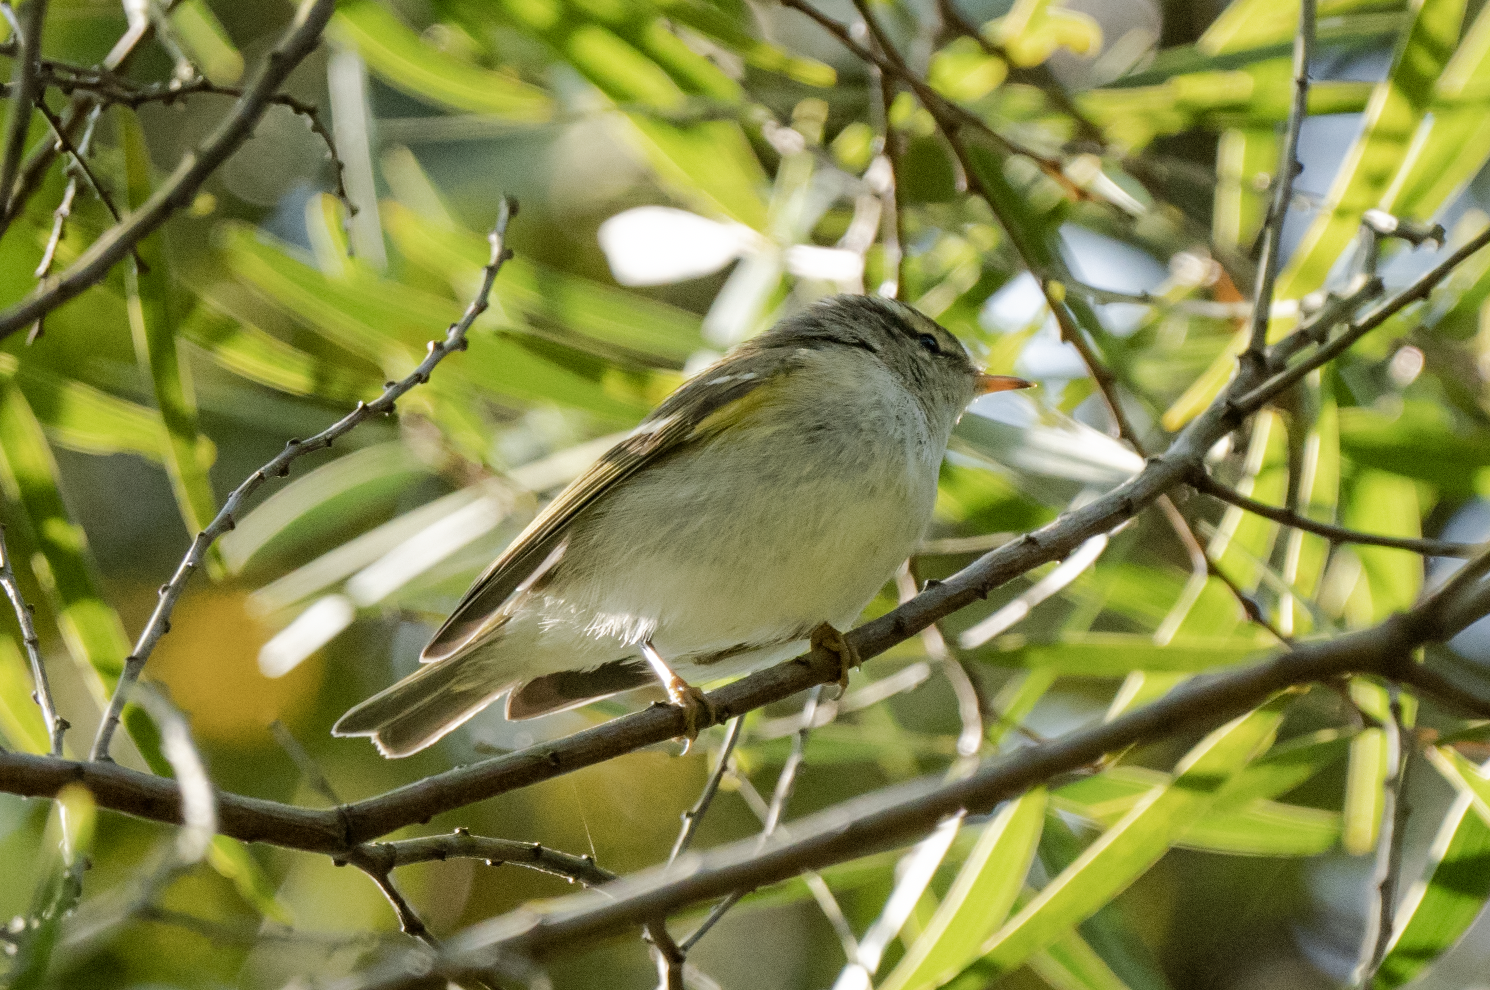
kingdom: Animalia
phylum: Chordata
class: Aves
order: Passeriformes
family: Phylloscopidae
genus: Phylloscopus
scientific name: Phylloscopus inornatus
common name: Yellow-browed warbler
